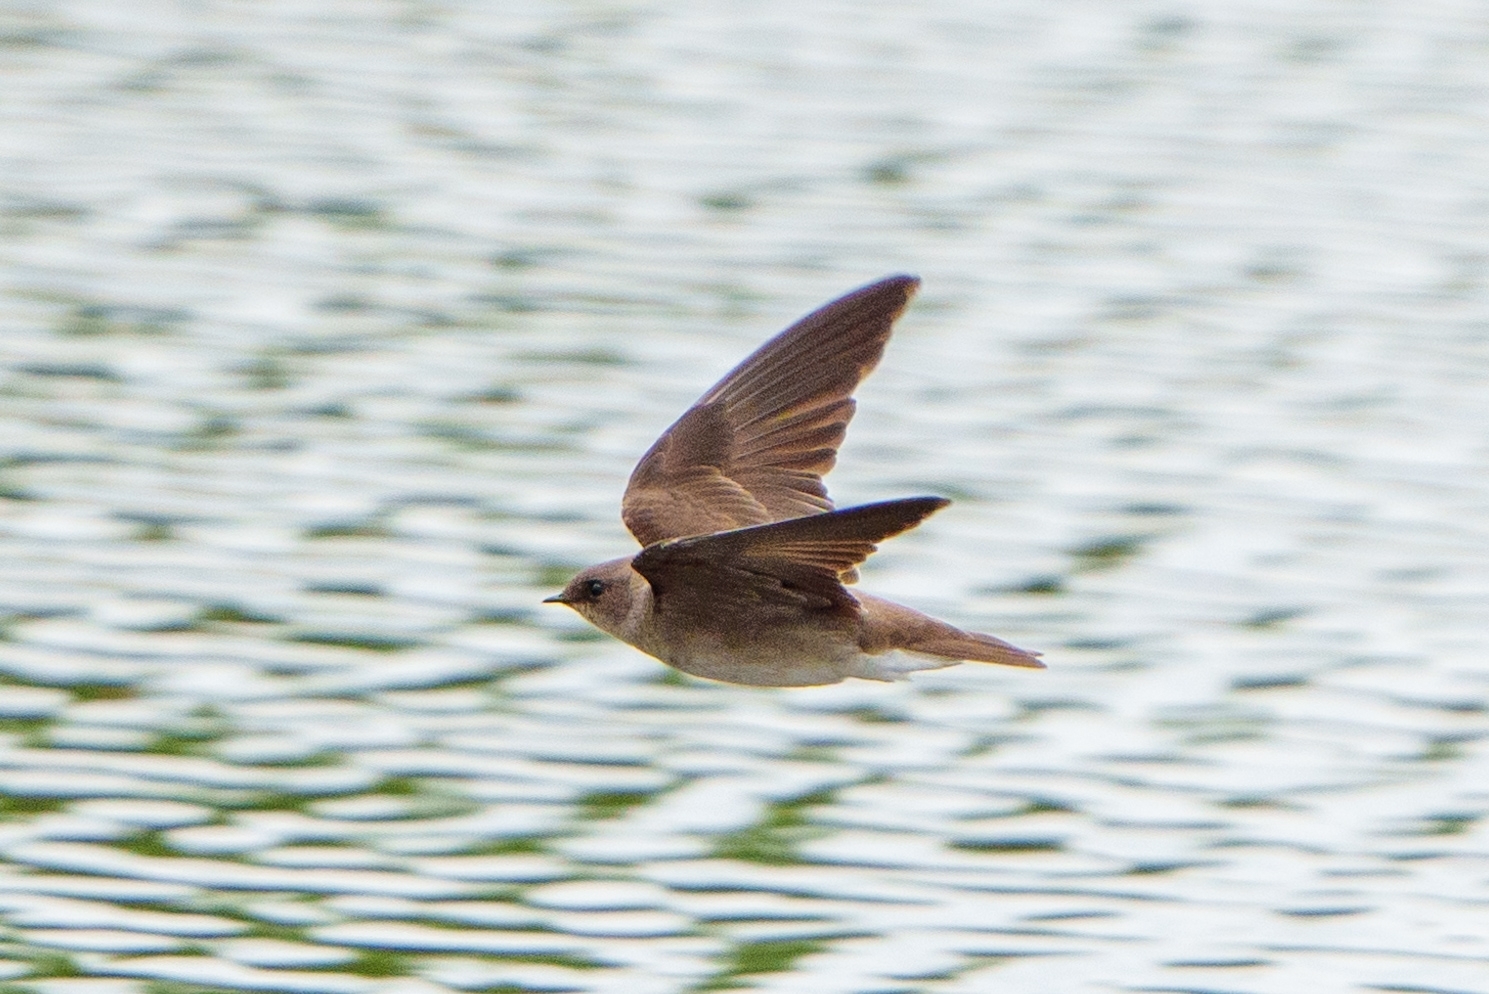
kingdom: Animalia
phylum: Chordata
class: Aves
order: Passeriformes
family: Hirundinidae
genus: Stelgidopteryx
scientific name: Stelgidopteryx serripennis
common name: Northern rough-winged swallow
